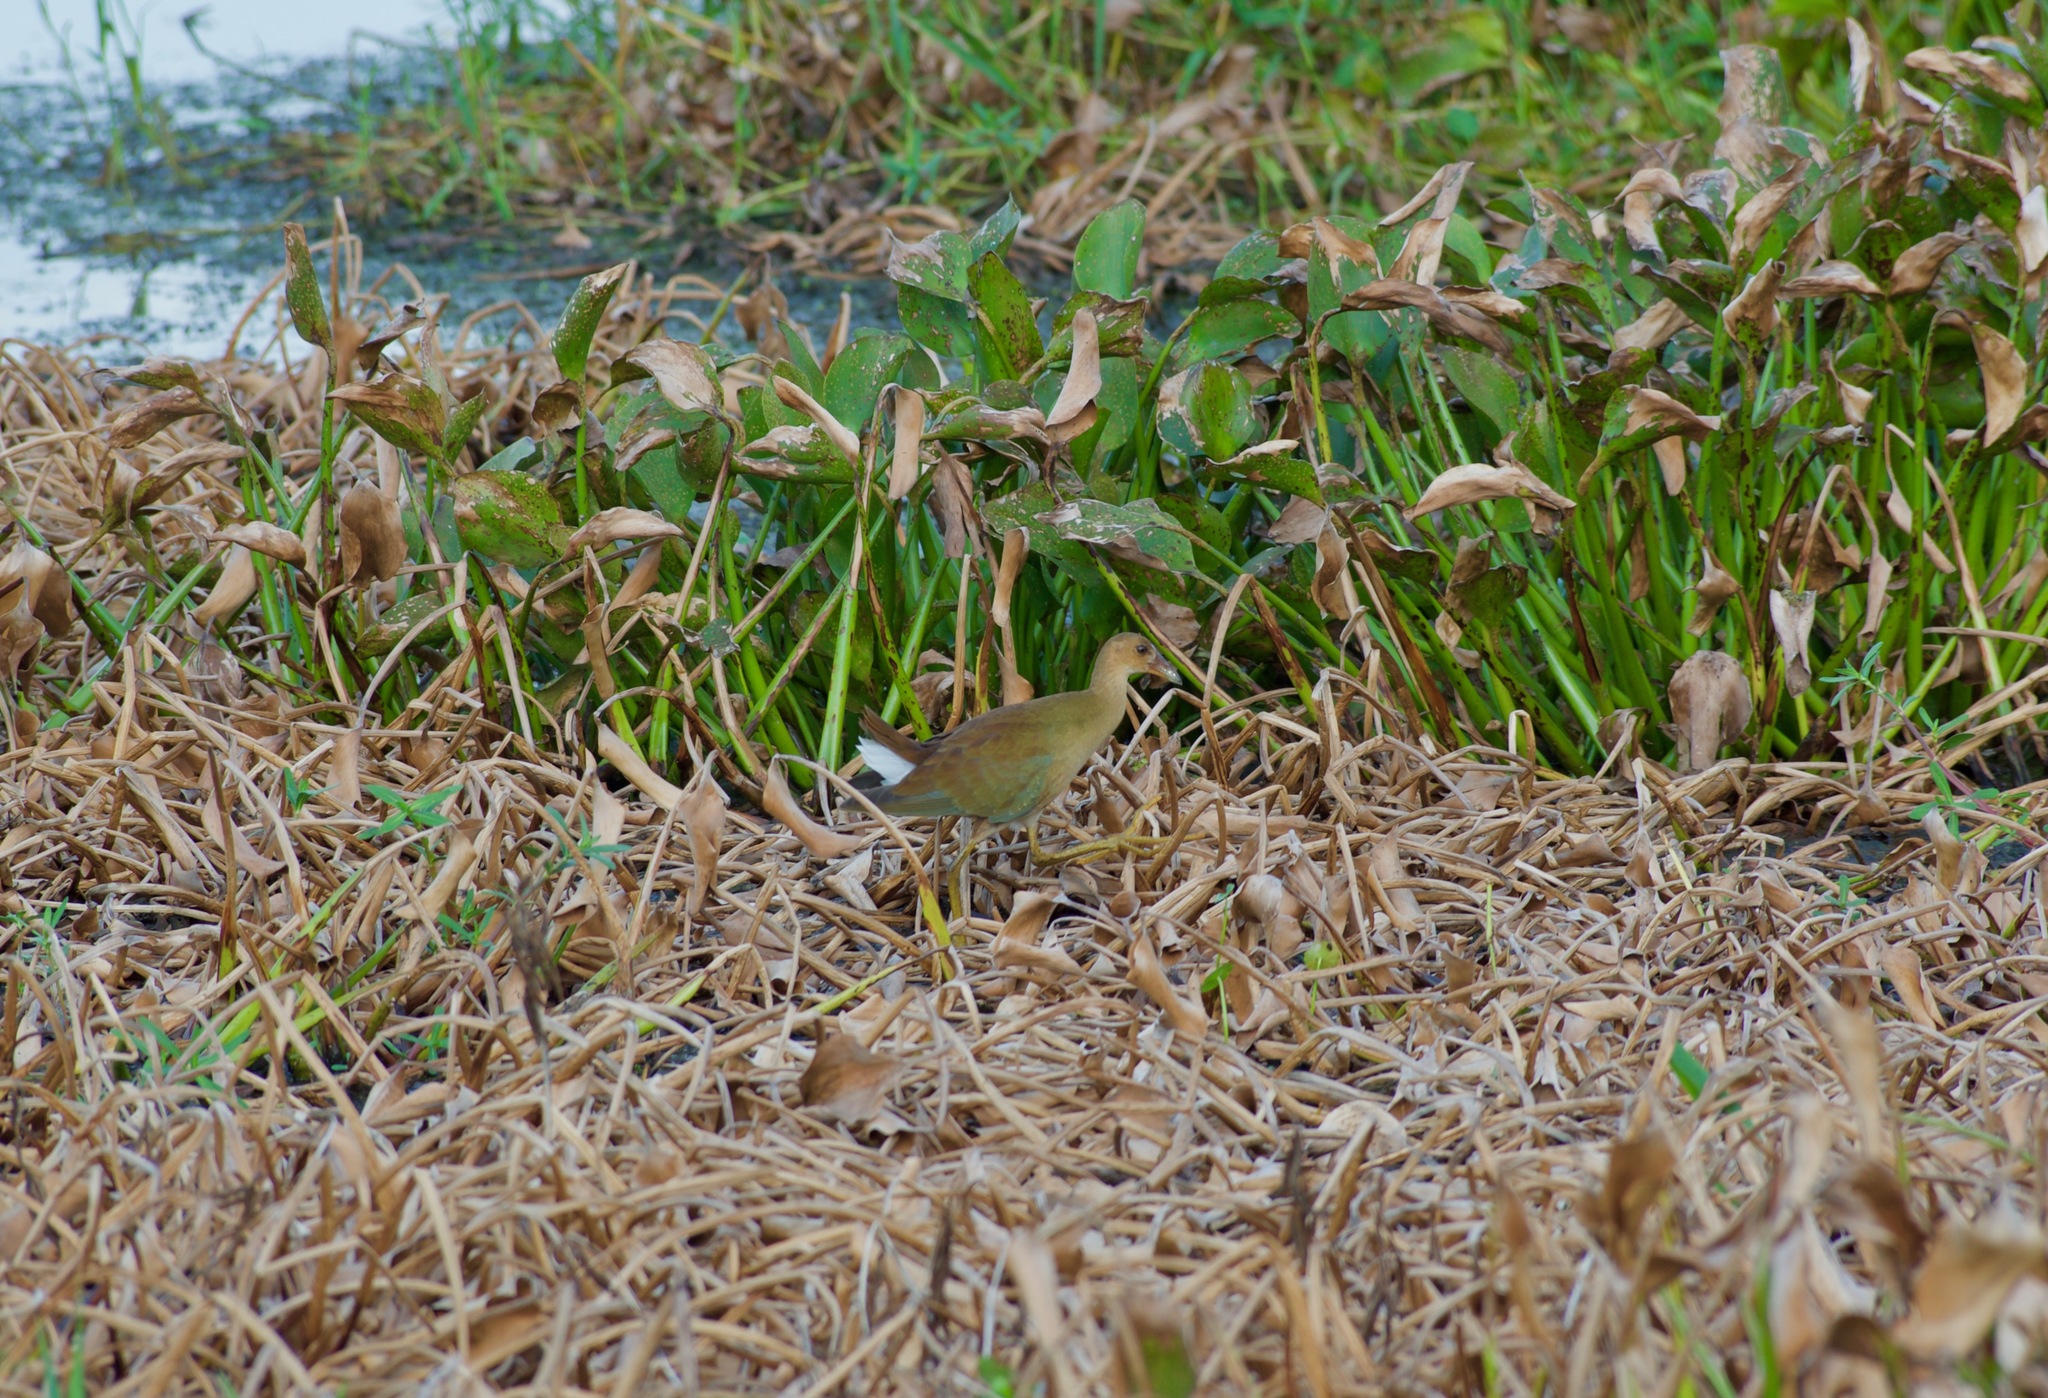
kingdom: Animalia
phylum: Chordata
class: Aves
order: Gruiformes
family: Rallidae
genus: Porphyrio
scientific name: Porphyrio martinica
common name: Purple gallinule
